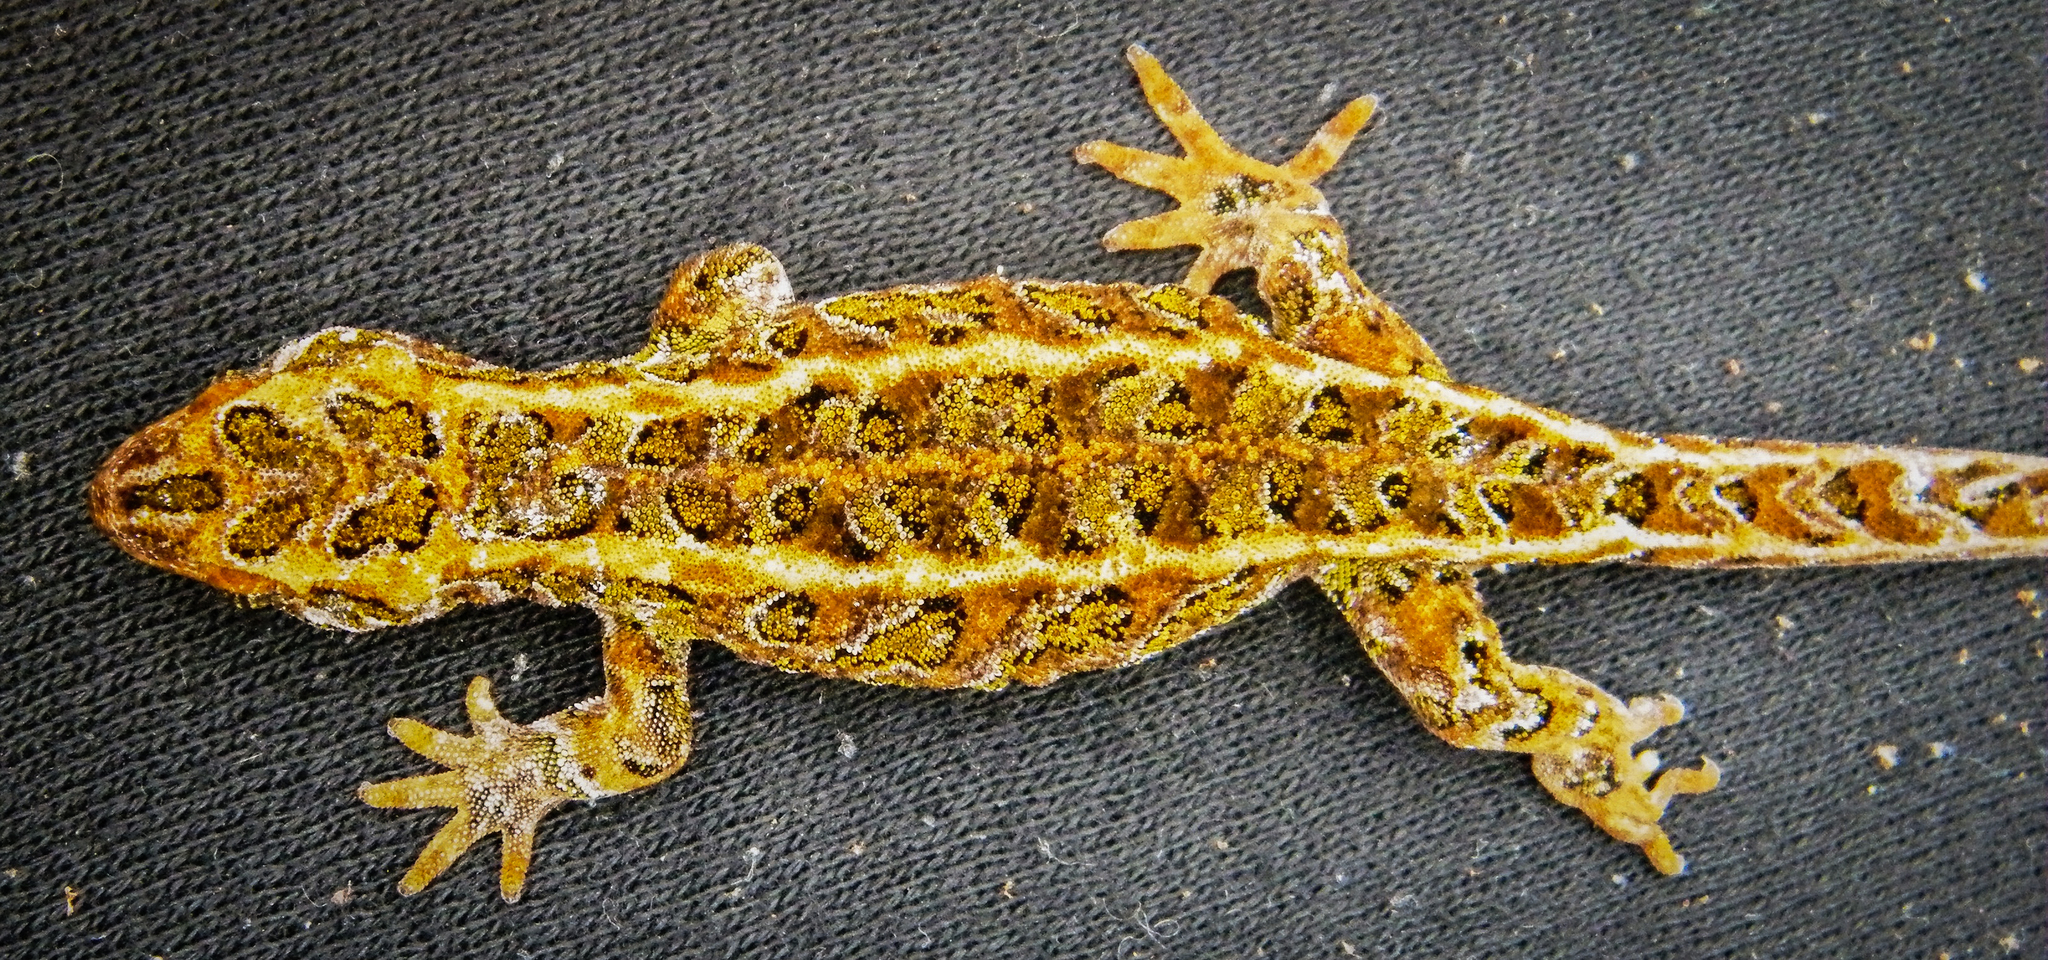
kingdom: Animalia
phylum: Chordata
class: Squamata
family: Diplodactylidae
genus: Tukutuku
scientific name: Tukutuku rakiurae
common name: Harlequin gecko
